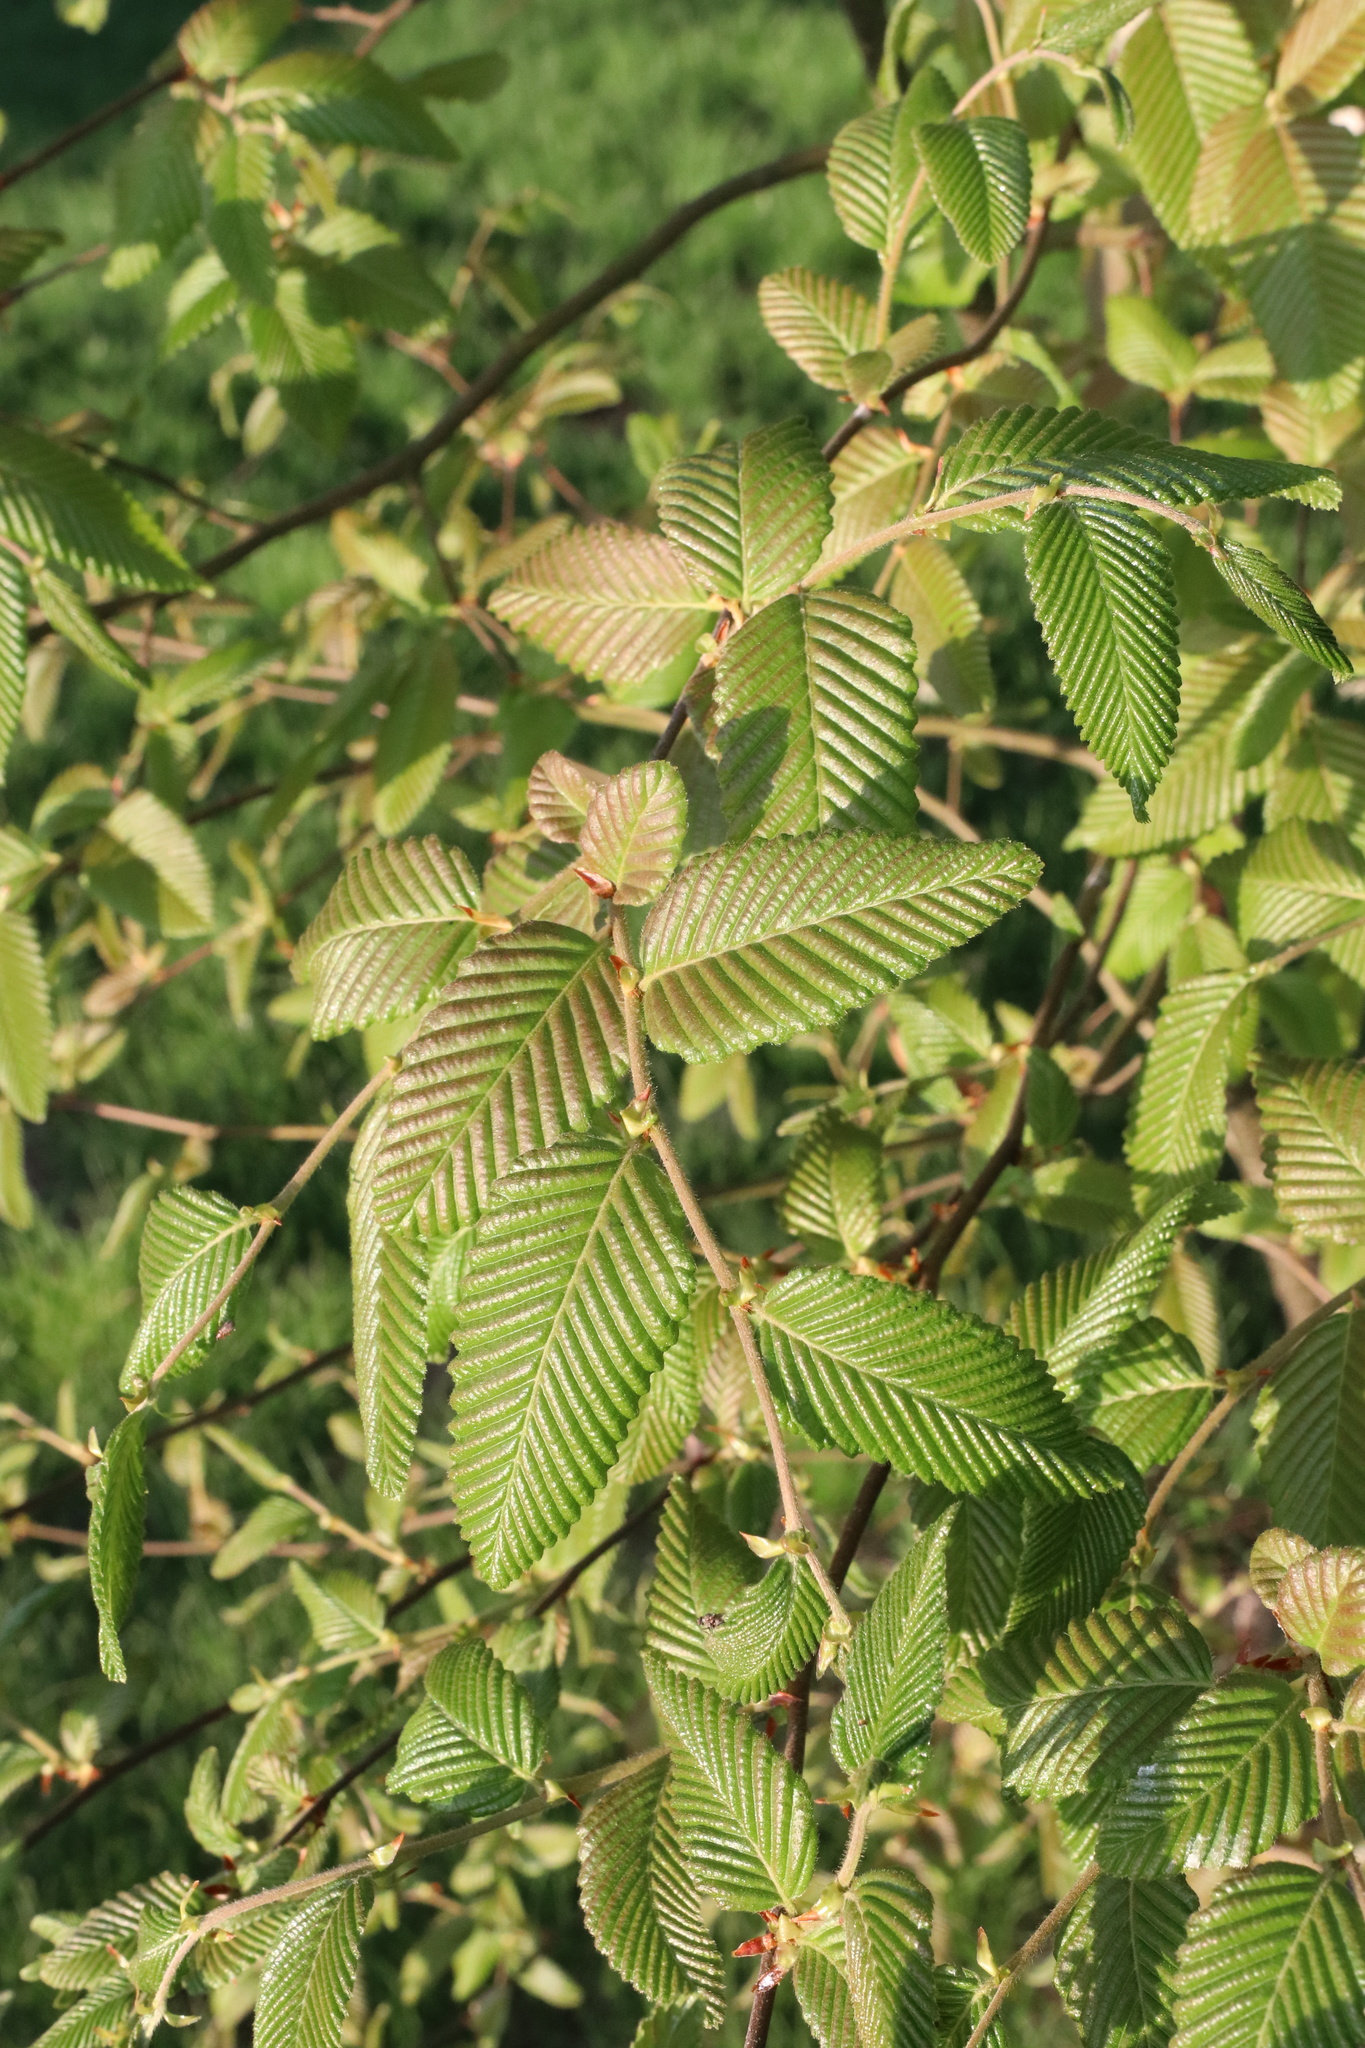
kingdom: Plantae
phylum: Tracheophyta
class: Magnoliopsida
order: Fagales
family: Nothofagaceae
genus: Nothofagus
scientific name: Nothofagus alpina
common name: Rauli
